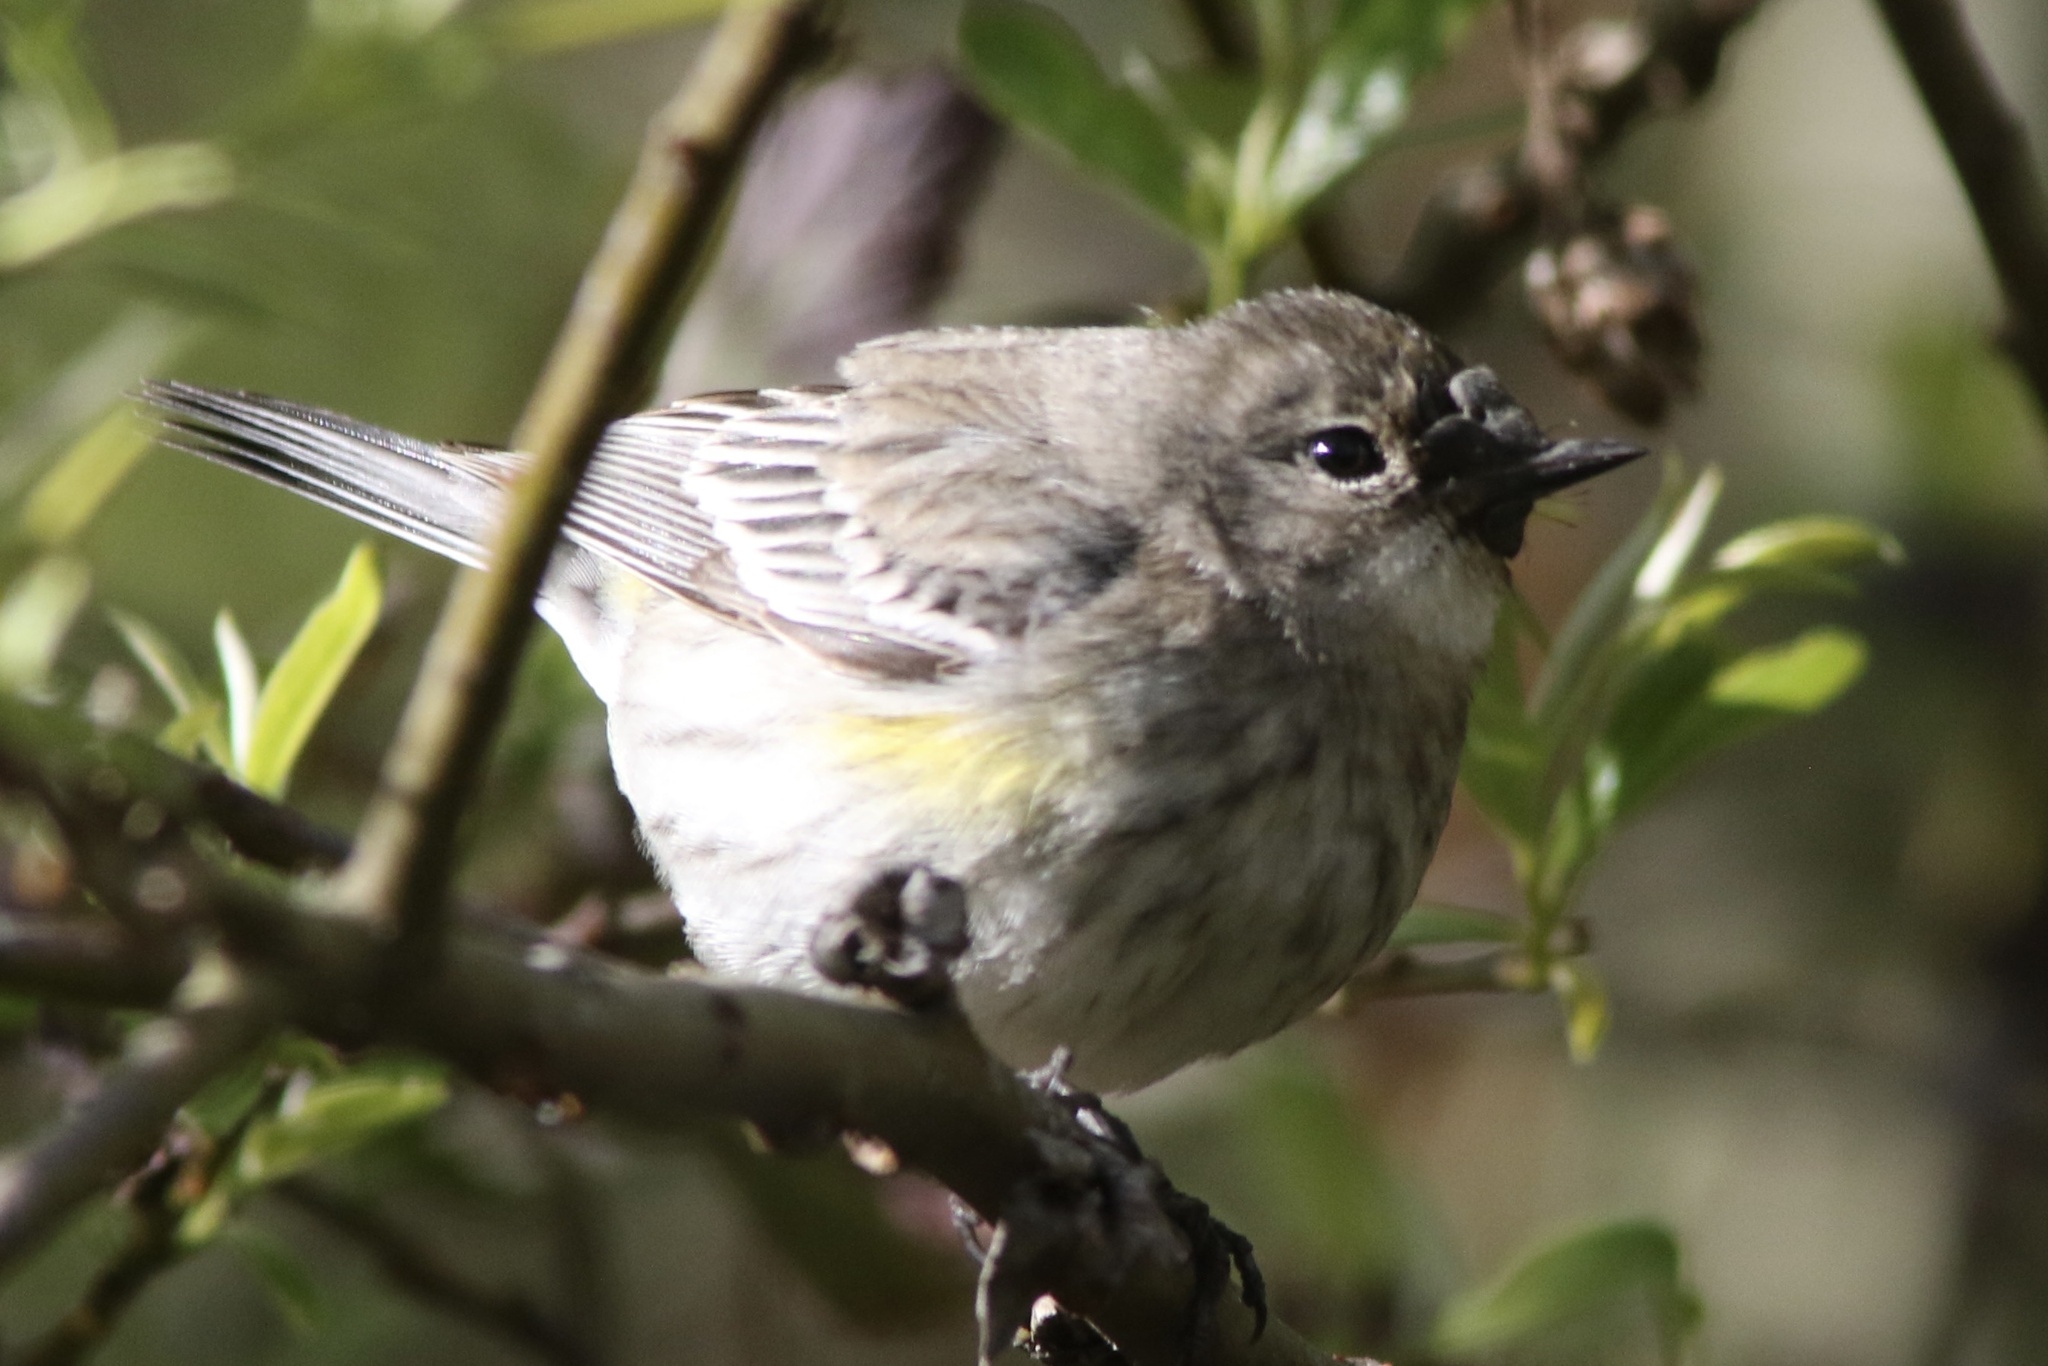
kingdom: Animalia
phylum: Chordata
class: Aves
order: Passeriformes
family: Parulidae
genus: Setophaga
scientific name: Setophaga coronata
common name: Myrtle warbler
